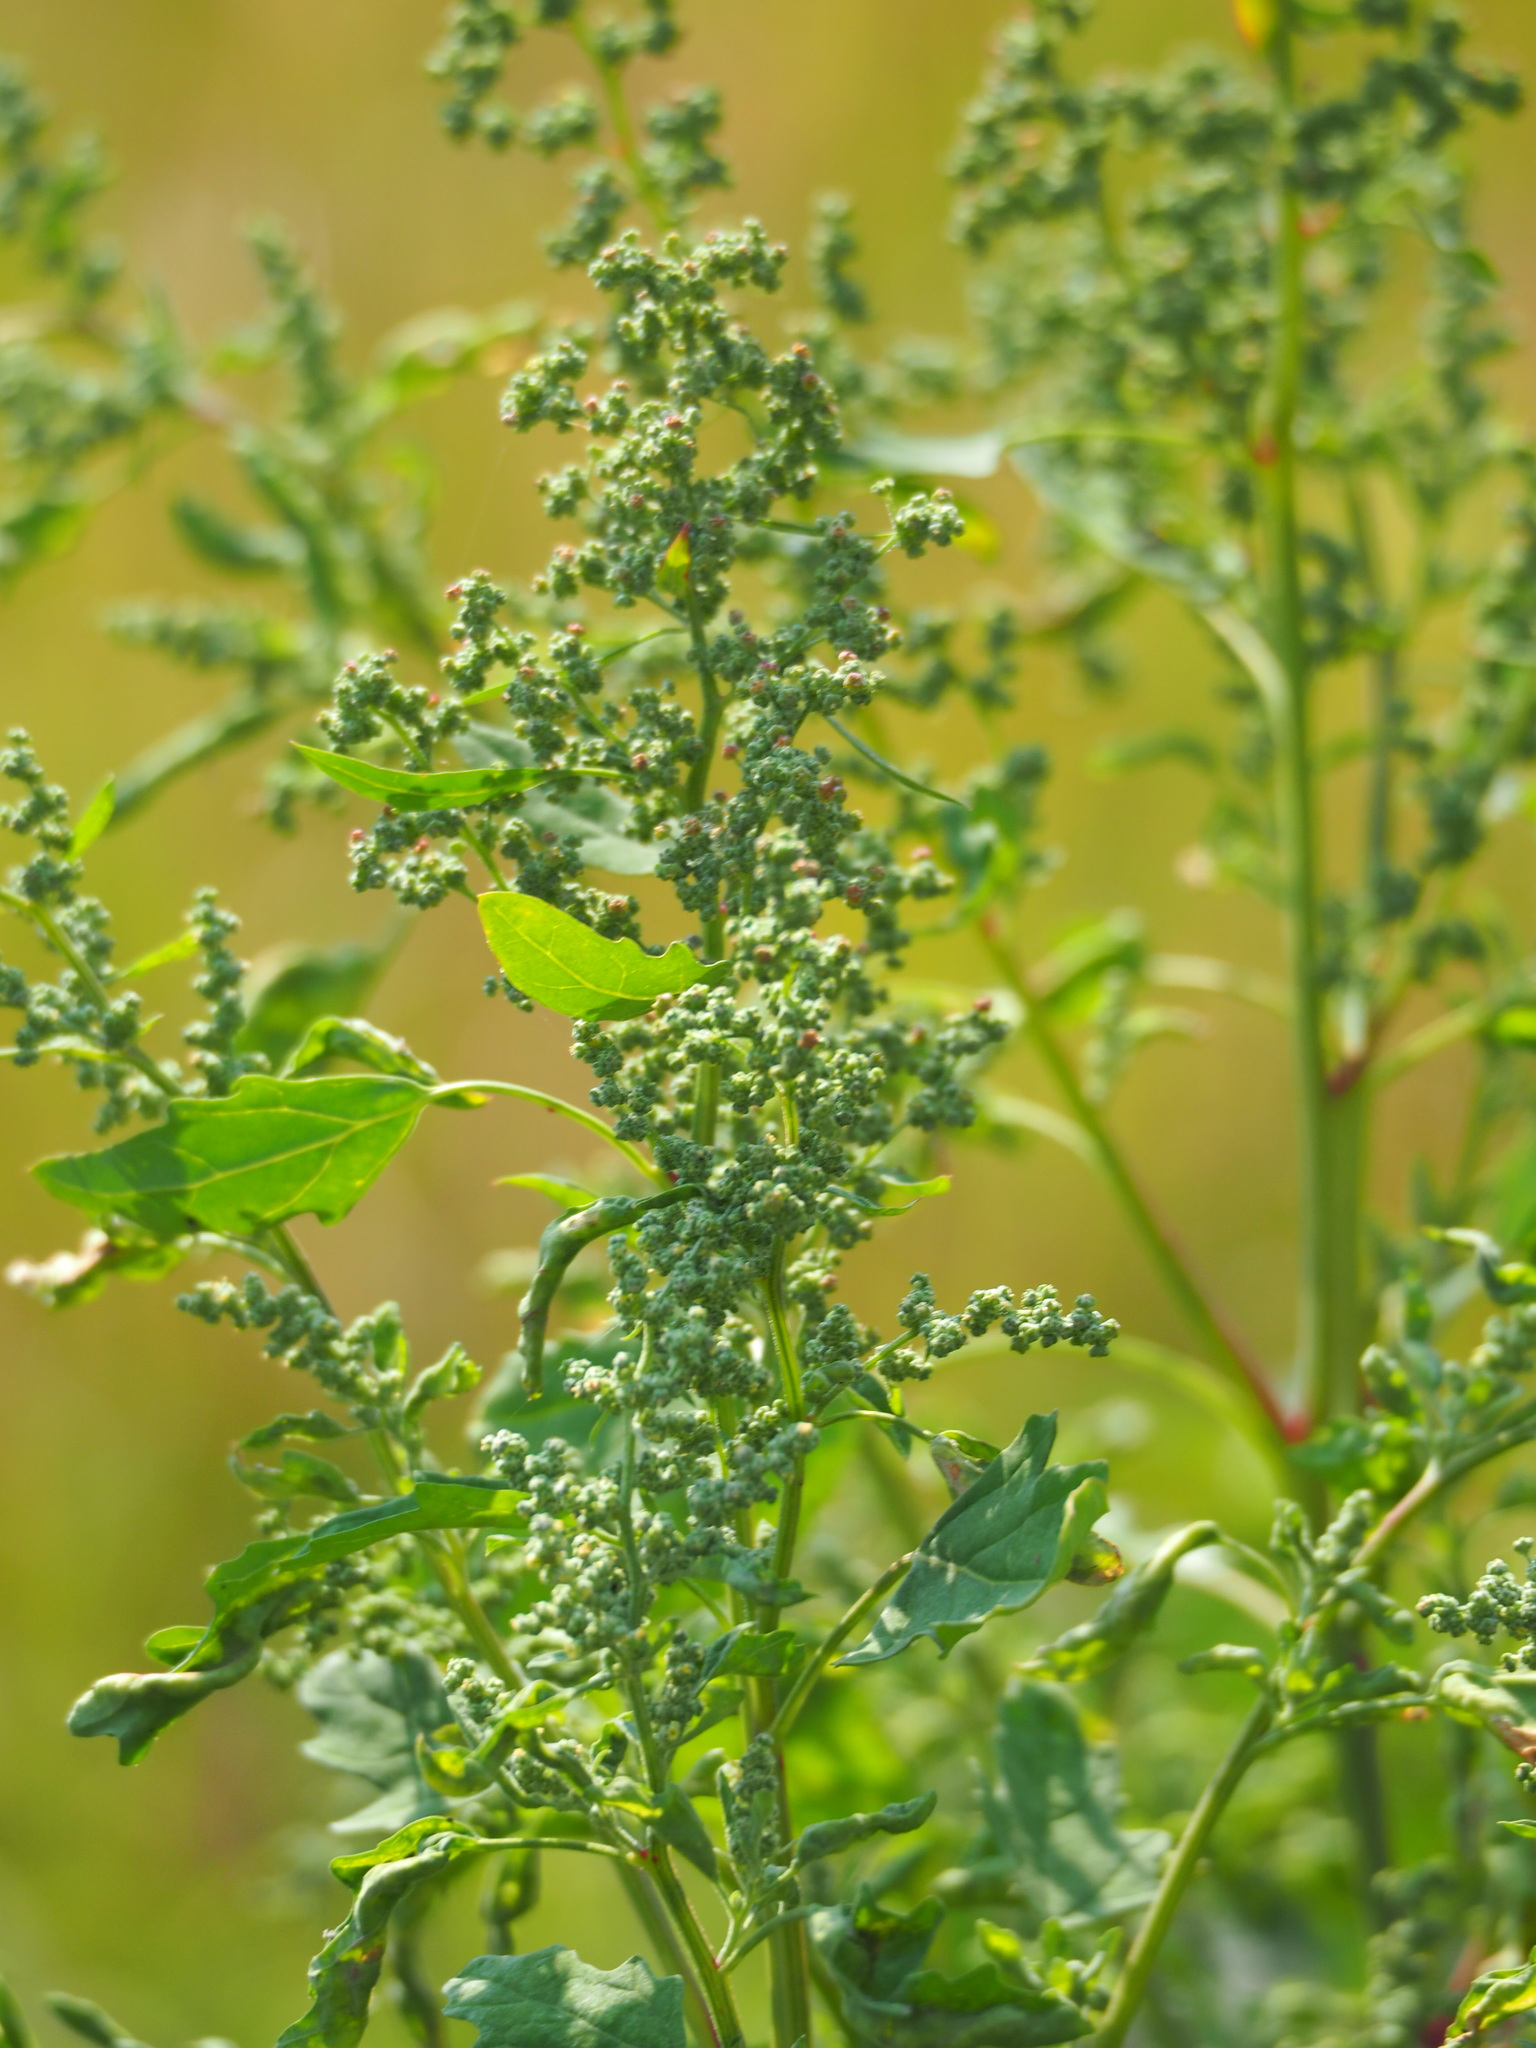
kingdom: Plantae
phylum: Tracheophyta
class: Magnoliopsida
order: Caryophyllales
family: Amaranthaceae
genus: Chenopodium
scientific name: Chenopodium ficifolium
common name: Fig-leaved goosefoot
